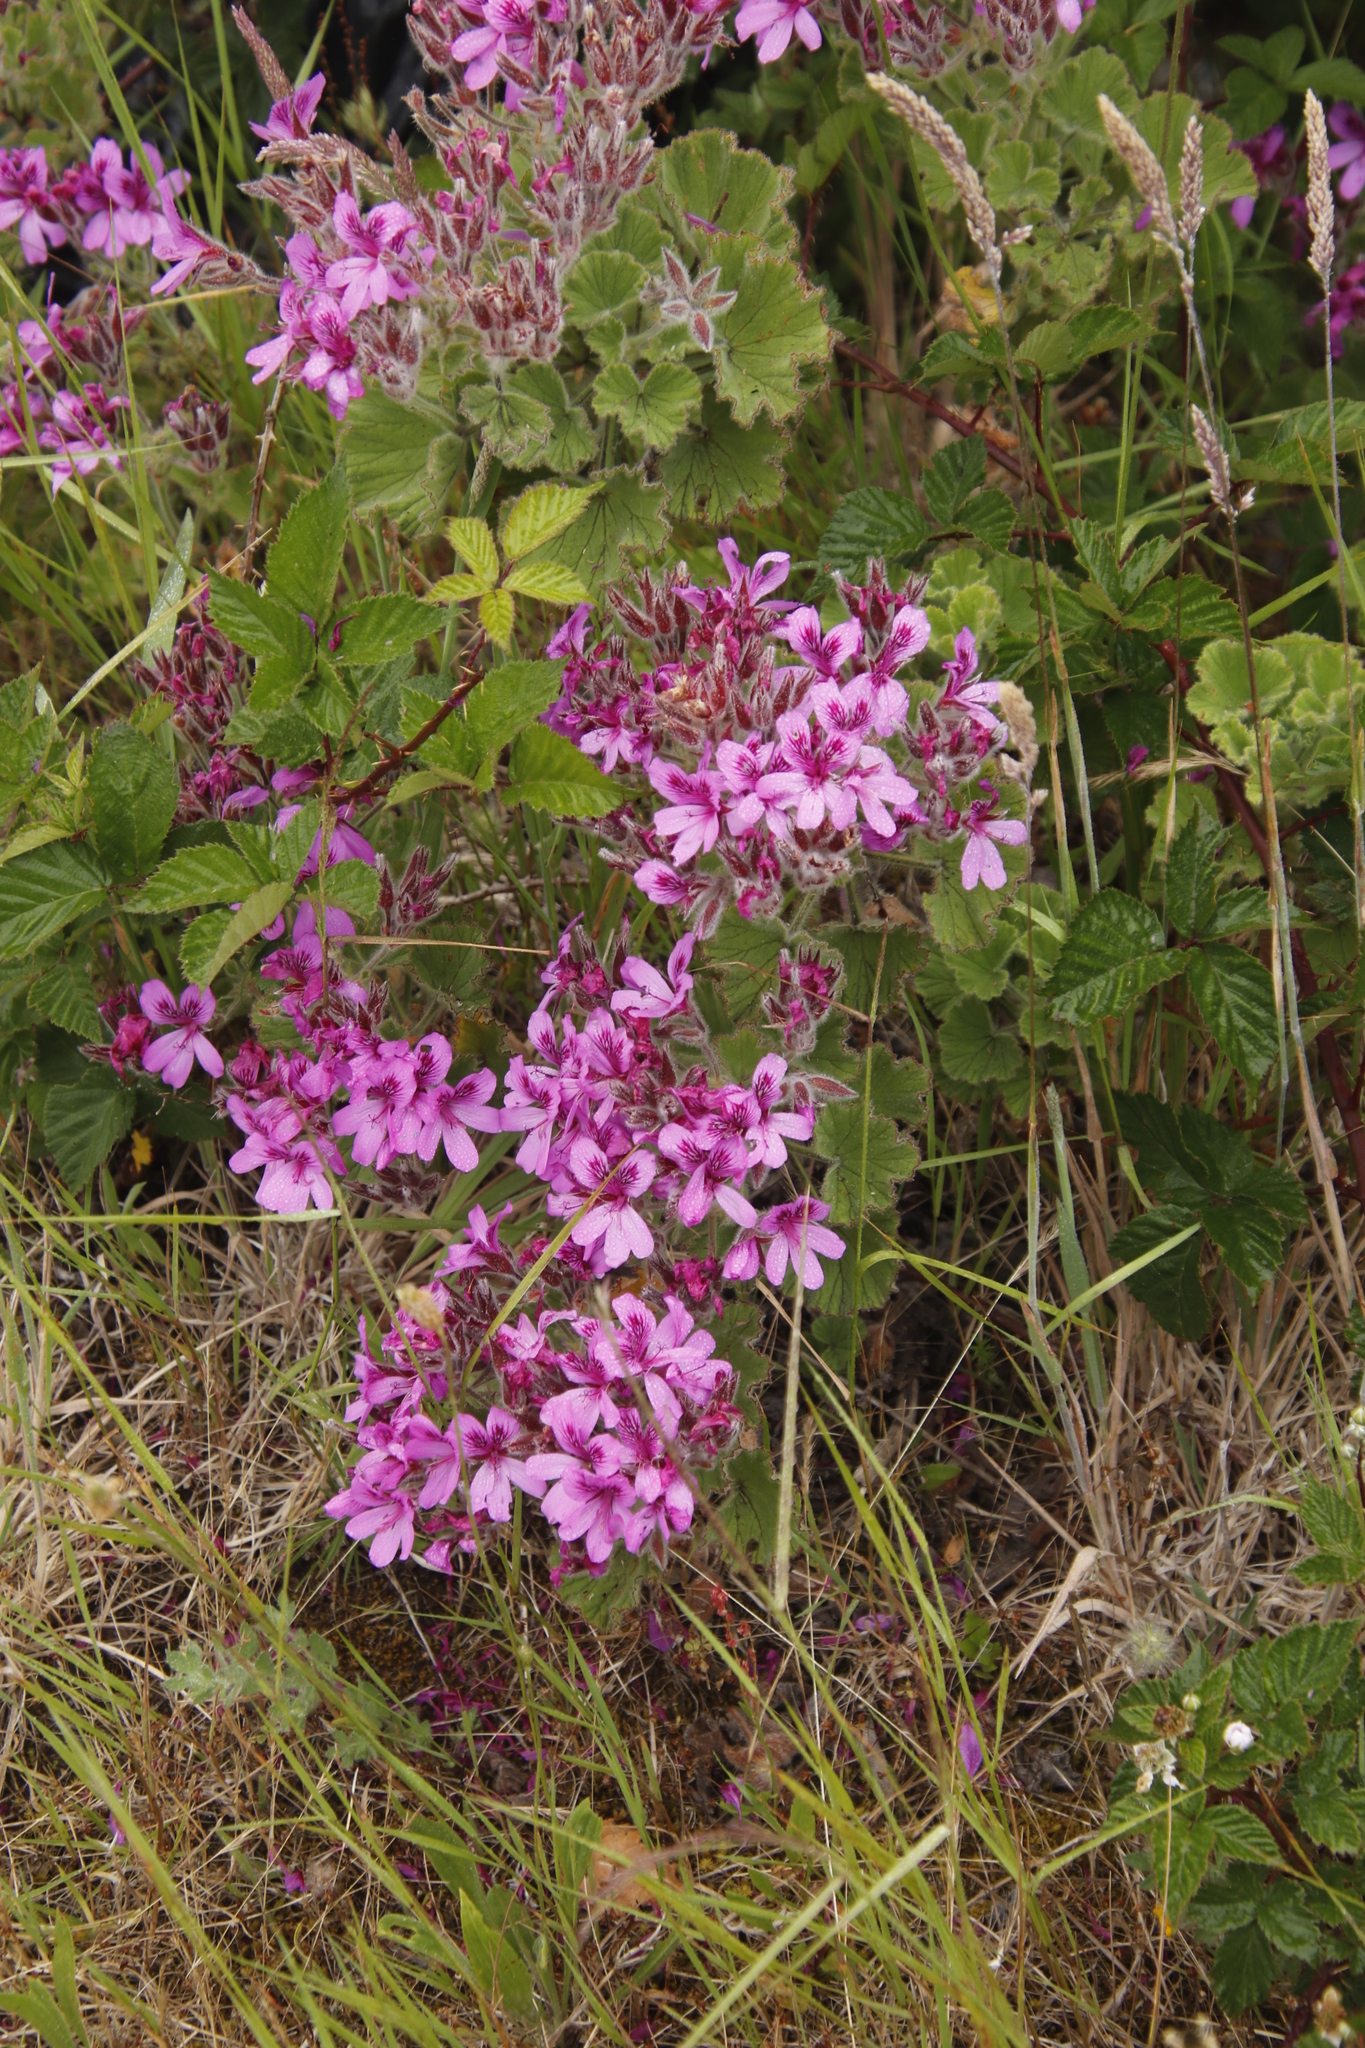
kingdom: Plantae
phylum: Tracheophyta
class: Magnoliopsida
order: Geraniales
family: Geraniaceae
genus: Pelargonium
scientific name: Pelargonium cucullatum
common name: Tree pelargonium
